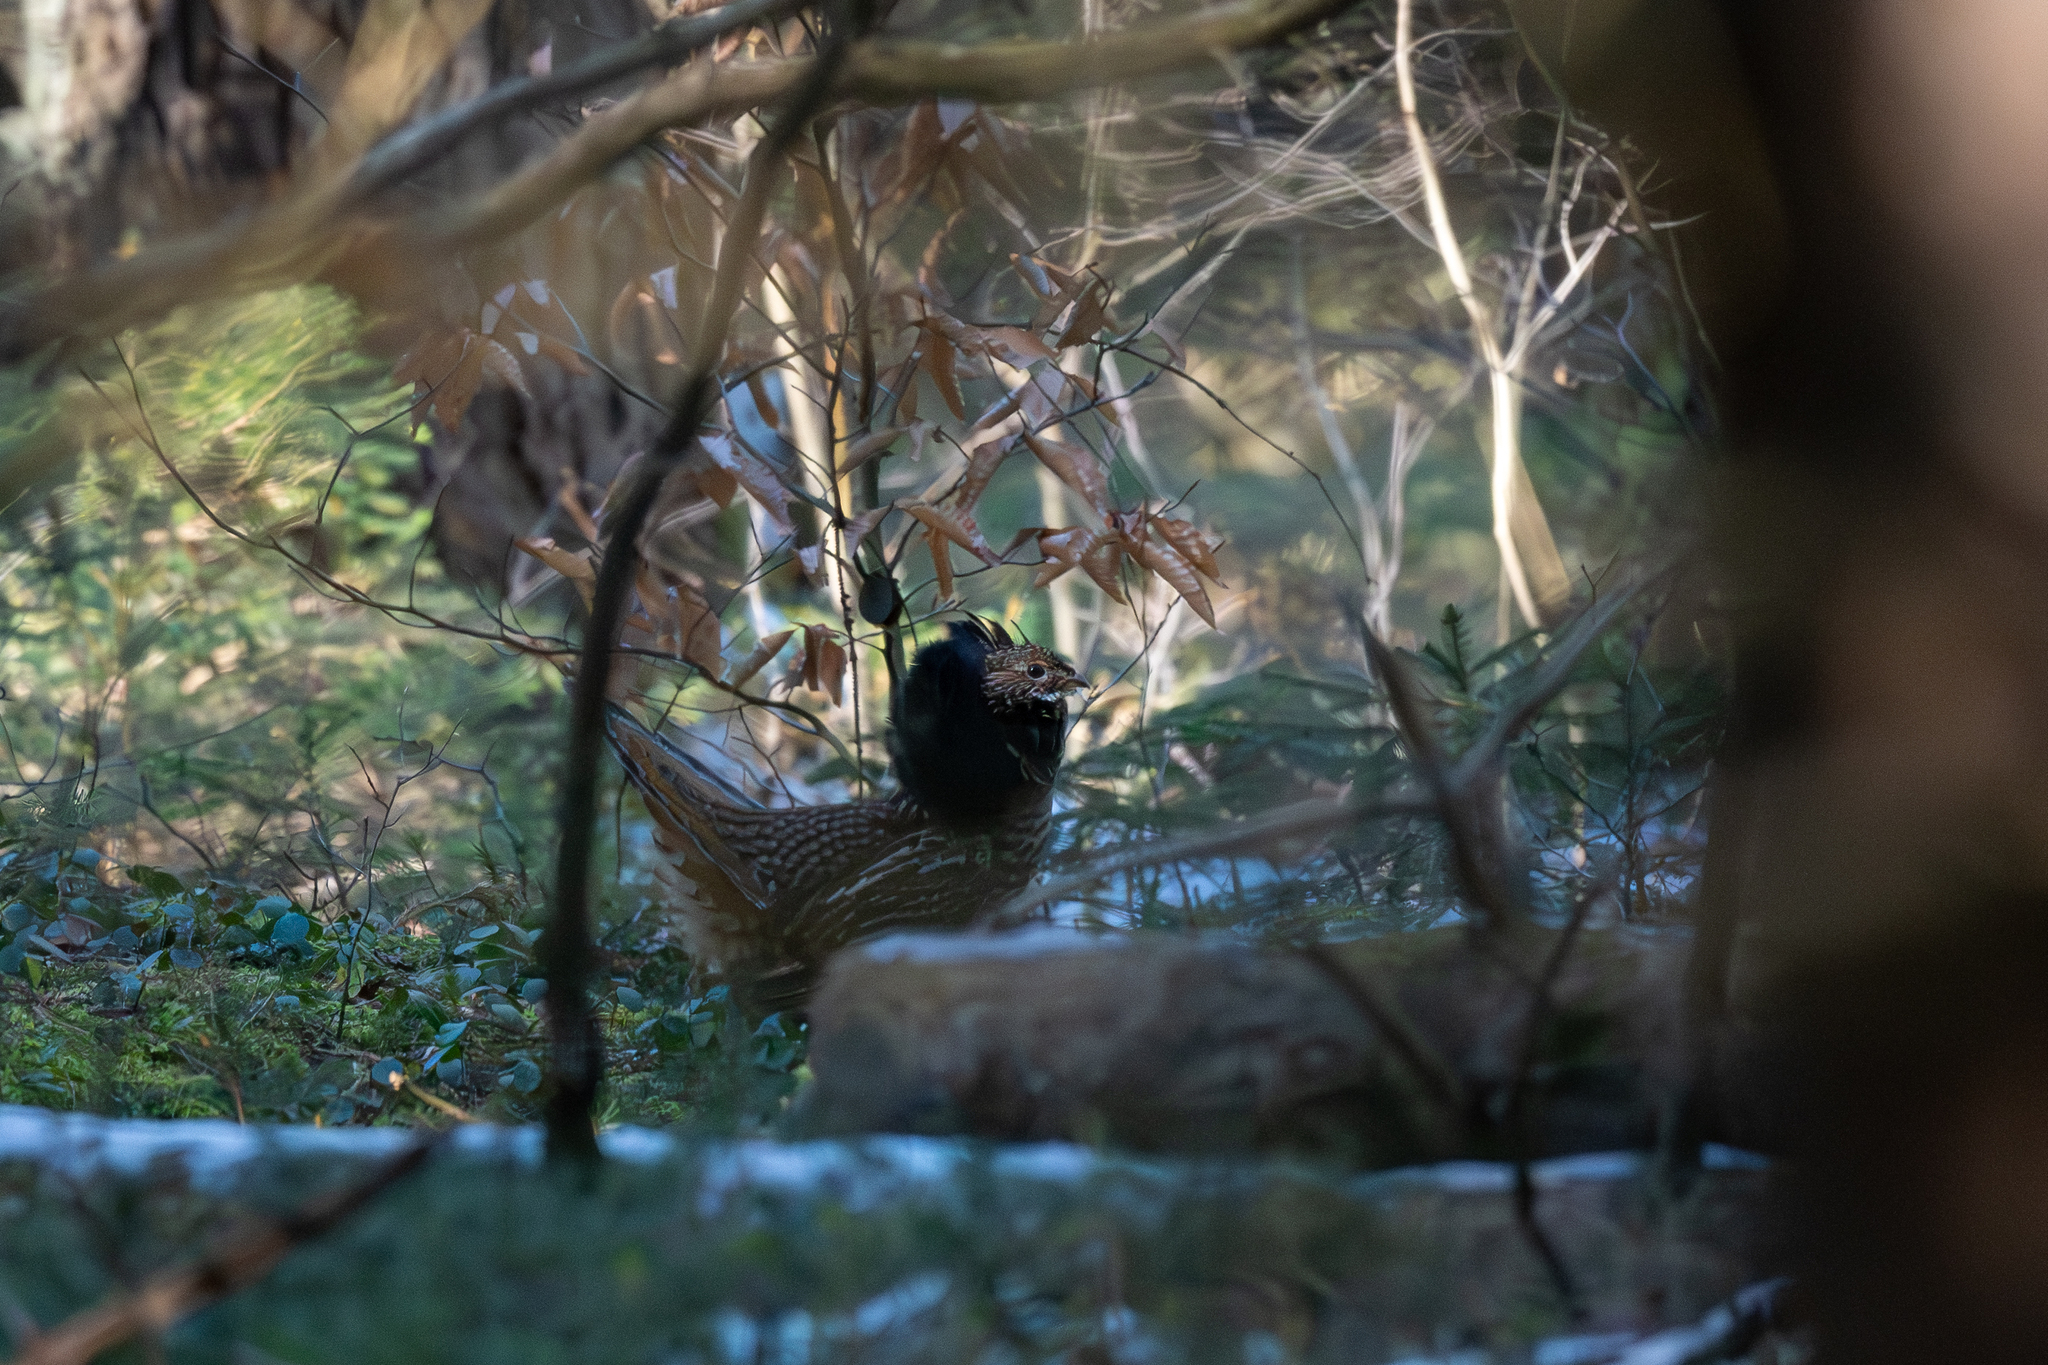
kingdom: Animalia
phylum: Chordata
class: Aves
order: Galliformes
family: Phasianidae
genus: Bonasa
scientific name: Bonasa umbellus
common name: Ruffed grouse
